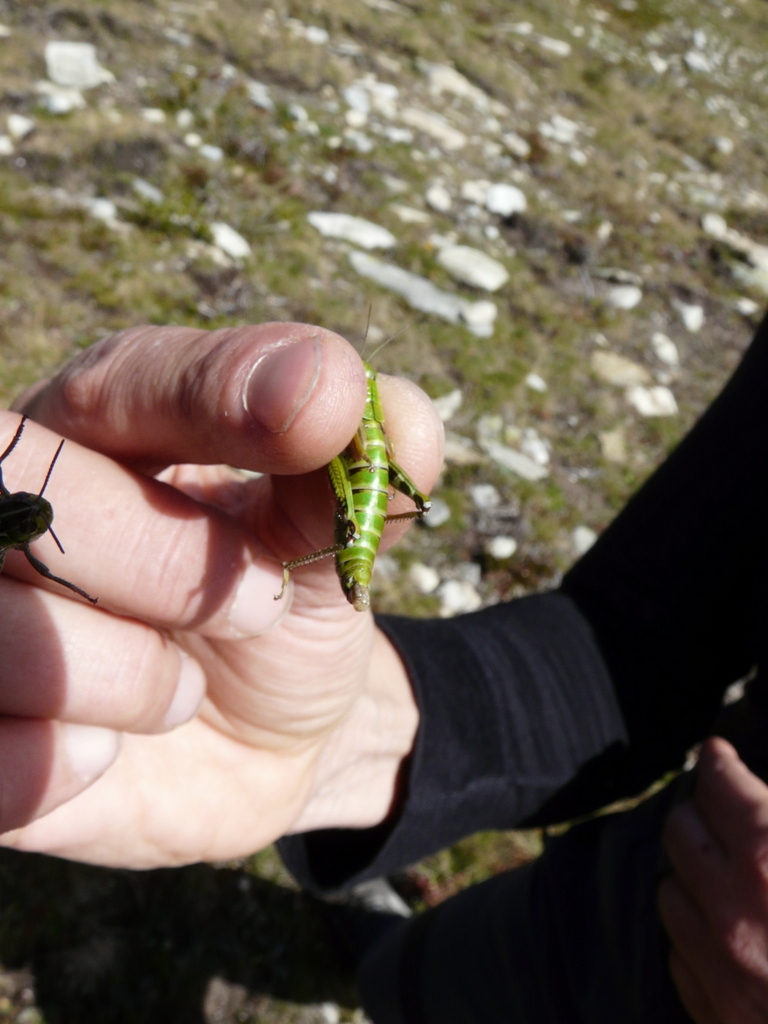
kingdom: Animalia
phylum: Arthropoda
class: Insecta
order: Orthoptera
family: Acrididae
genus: Miramella
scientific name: Miramella alpina
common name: Green mountain grasshopper
